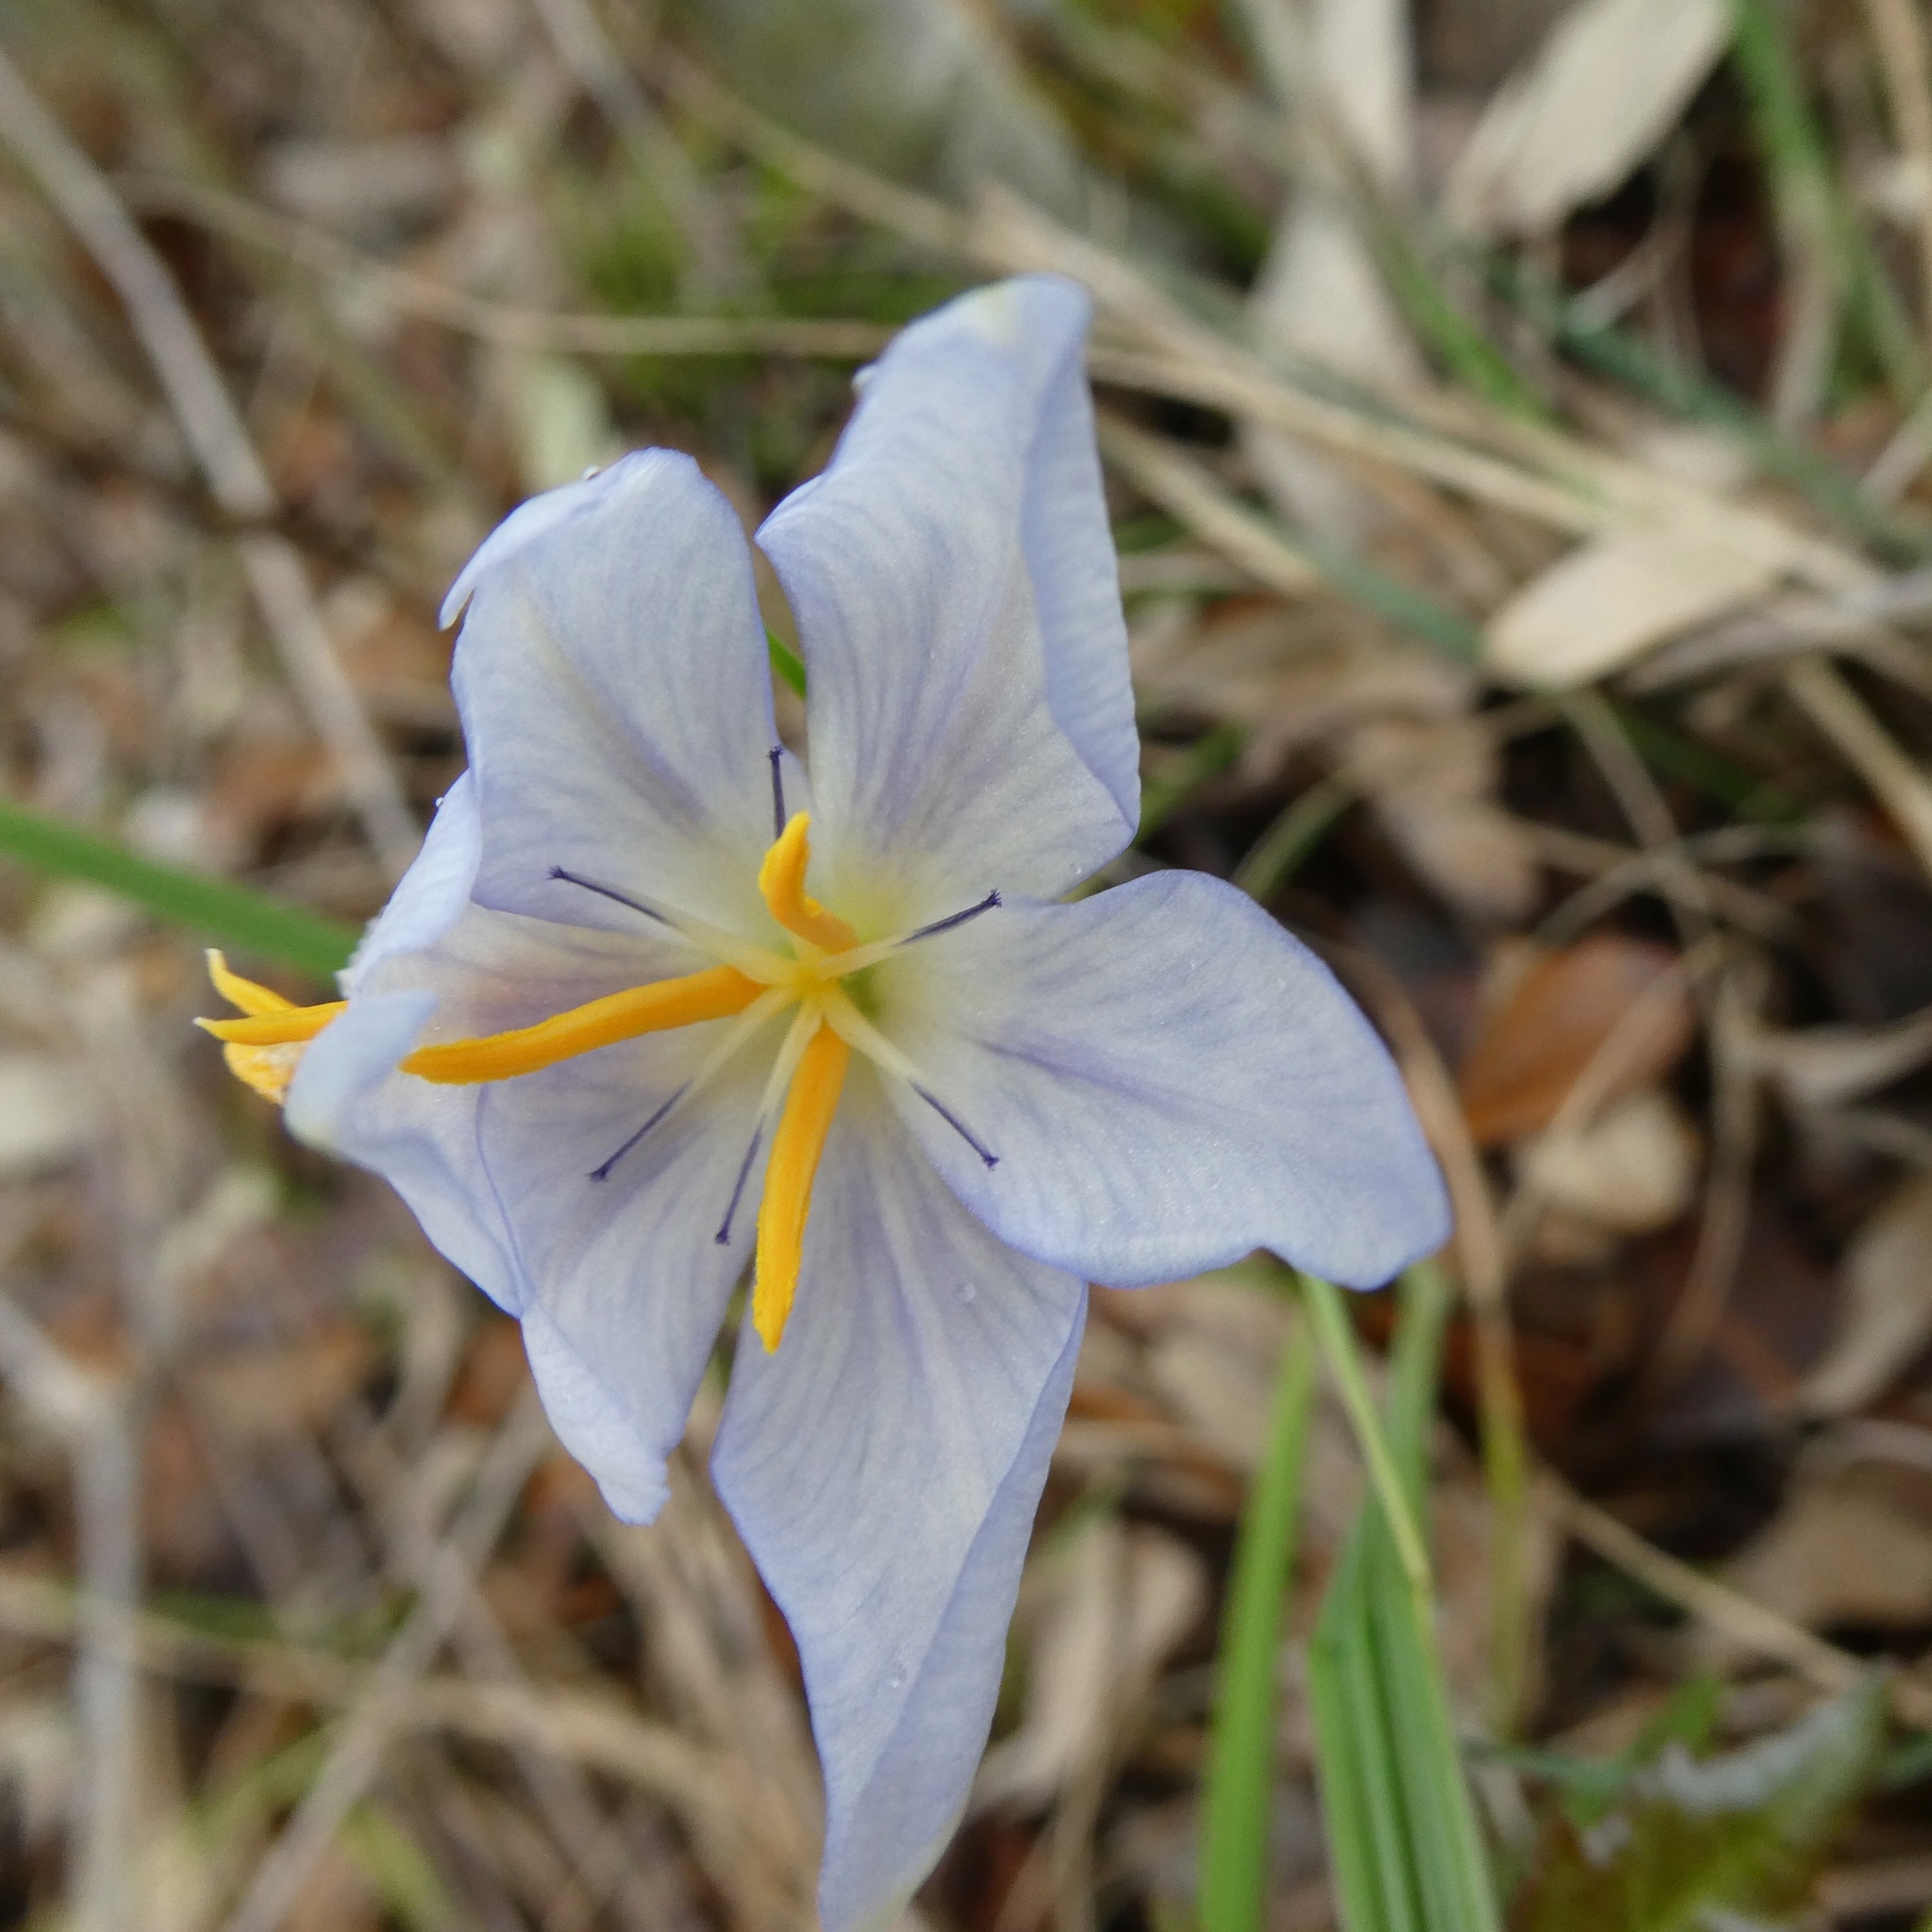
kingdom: Plantae
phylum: Tracheophyta
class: Liliopsida
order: Asparagales
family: Iridaceae
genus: Nemastylis
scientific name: Nemastylis geminiflora
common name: Prairie celestial
